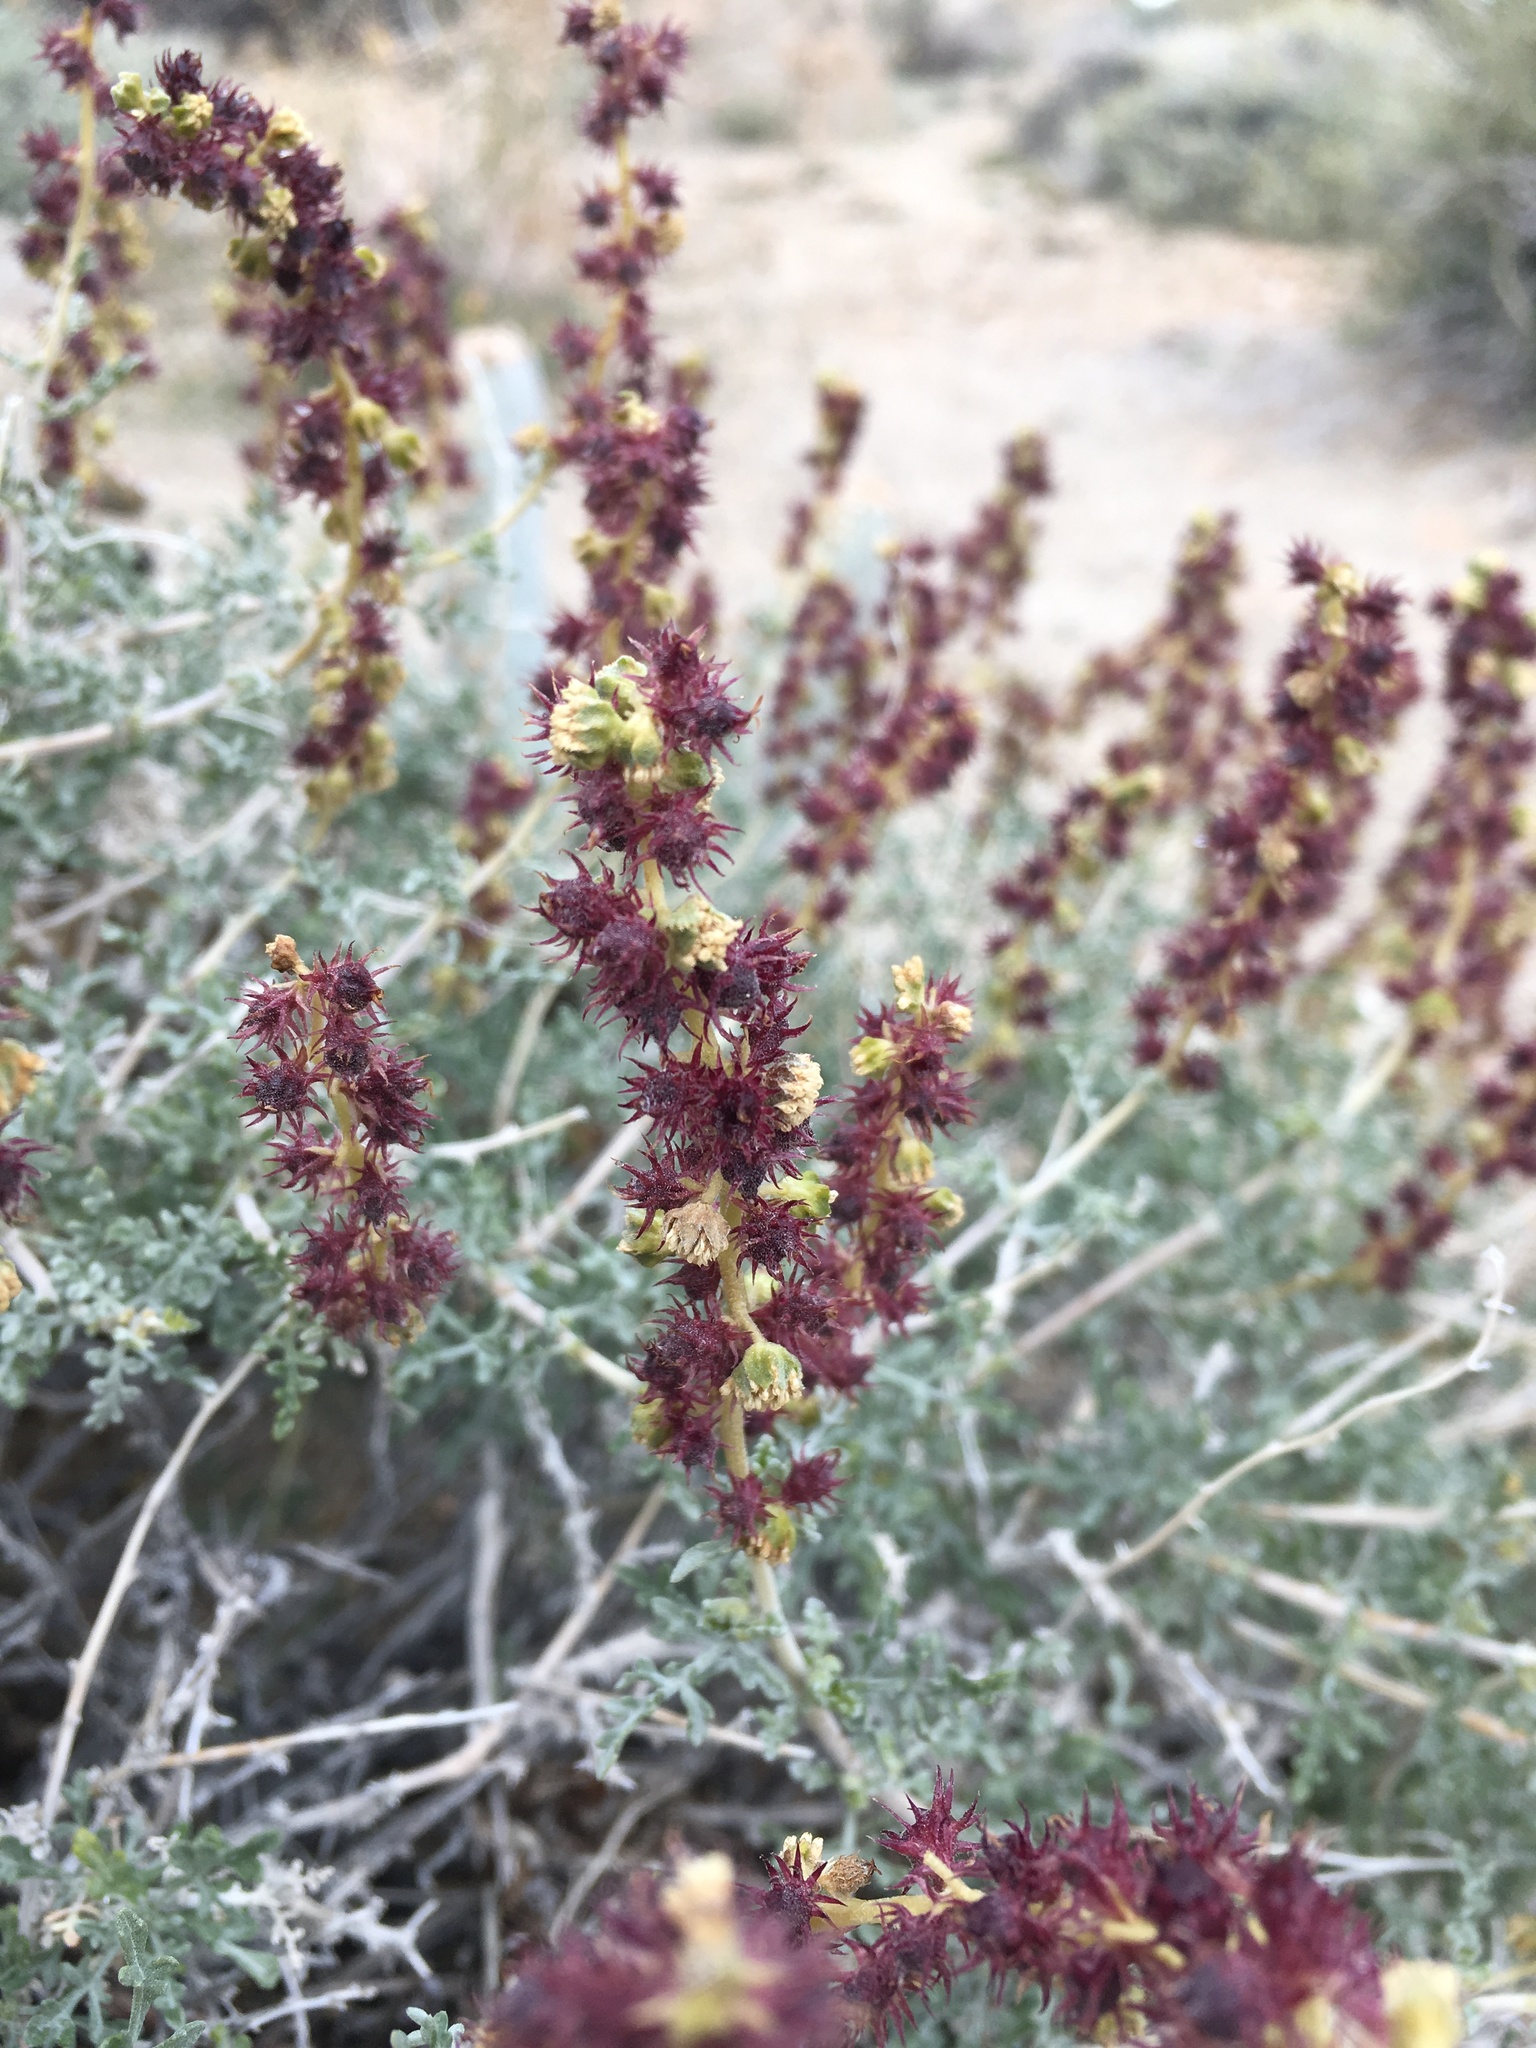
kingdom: Plantae
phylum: Tracheophyta
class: Magnoliopsida
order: Asterales
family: Asteraceae
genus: Ambrosia
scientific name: Ambrosia dumosa
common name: Bur-sage
